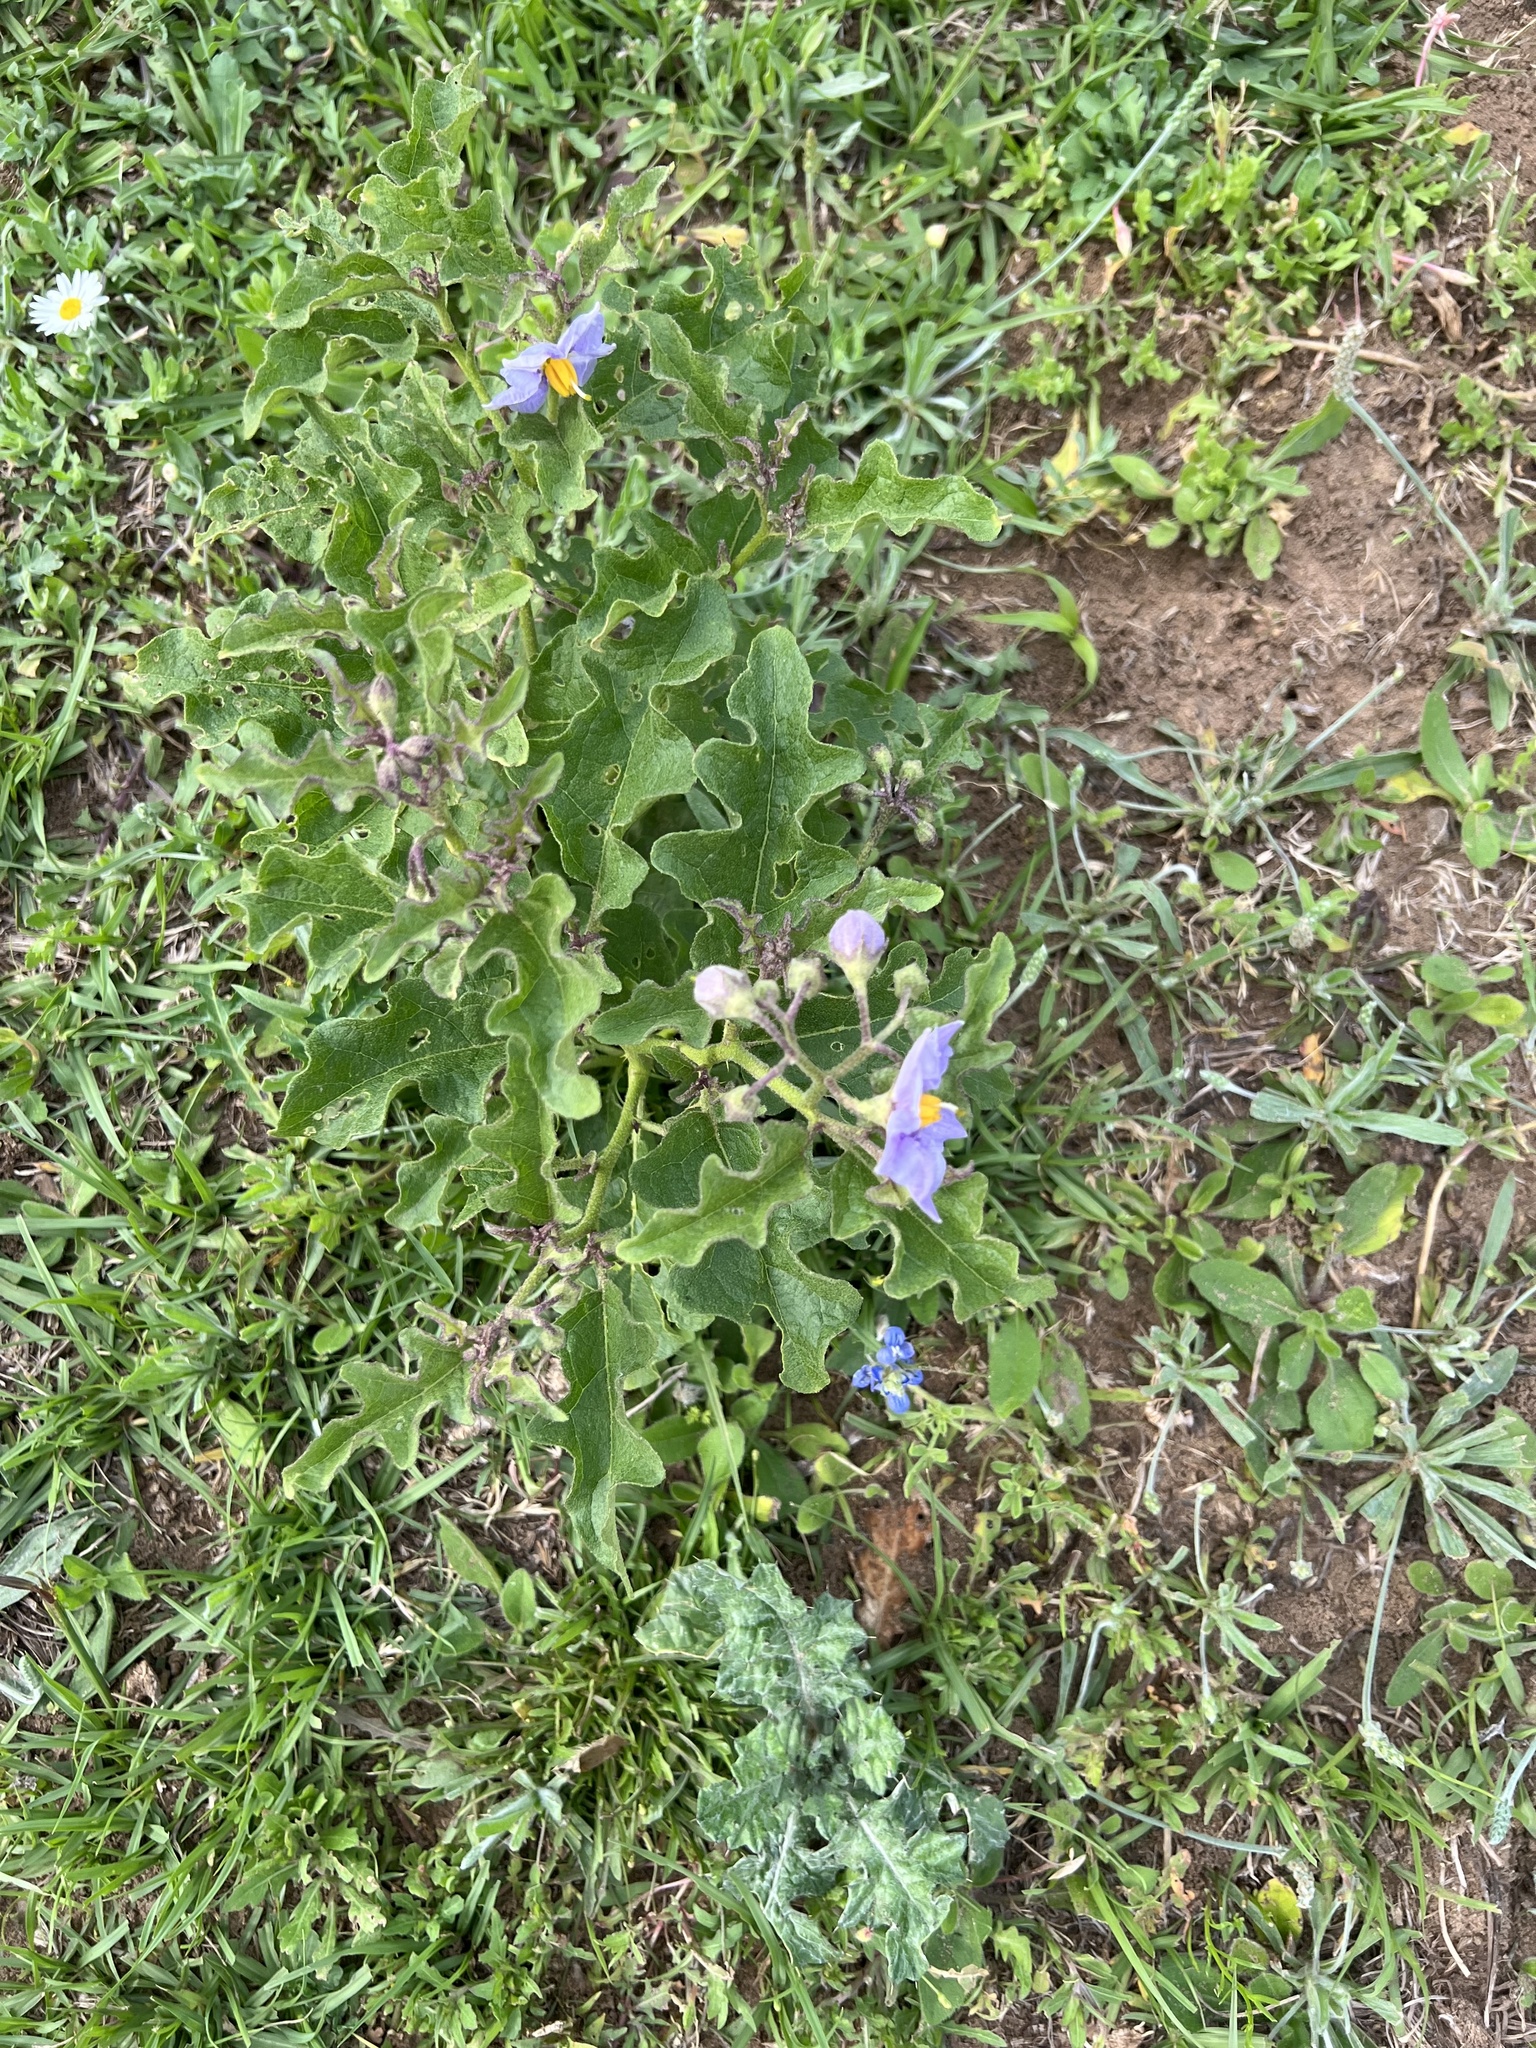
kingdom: Plantae
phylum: Tracheophyta
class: Magnoliopsida
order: Solanales
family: Solanaceae
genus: Solanum
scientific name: Solanum dimidiatum
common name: Carolina horse-nettle
